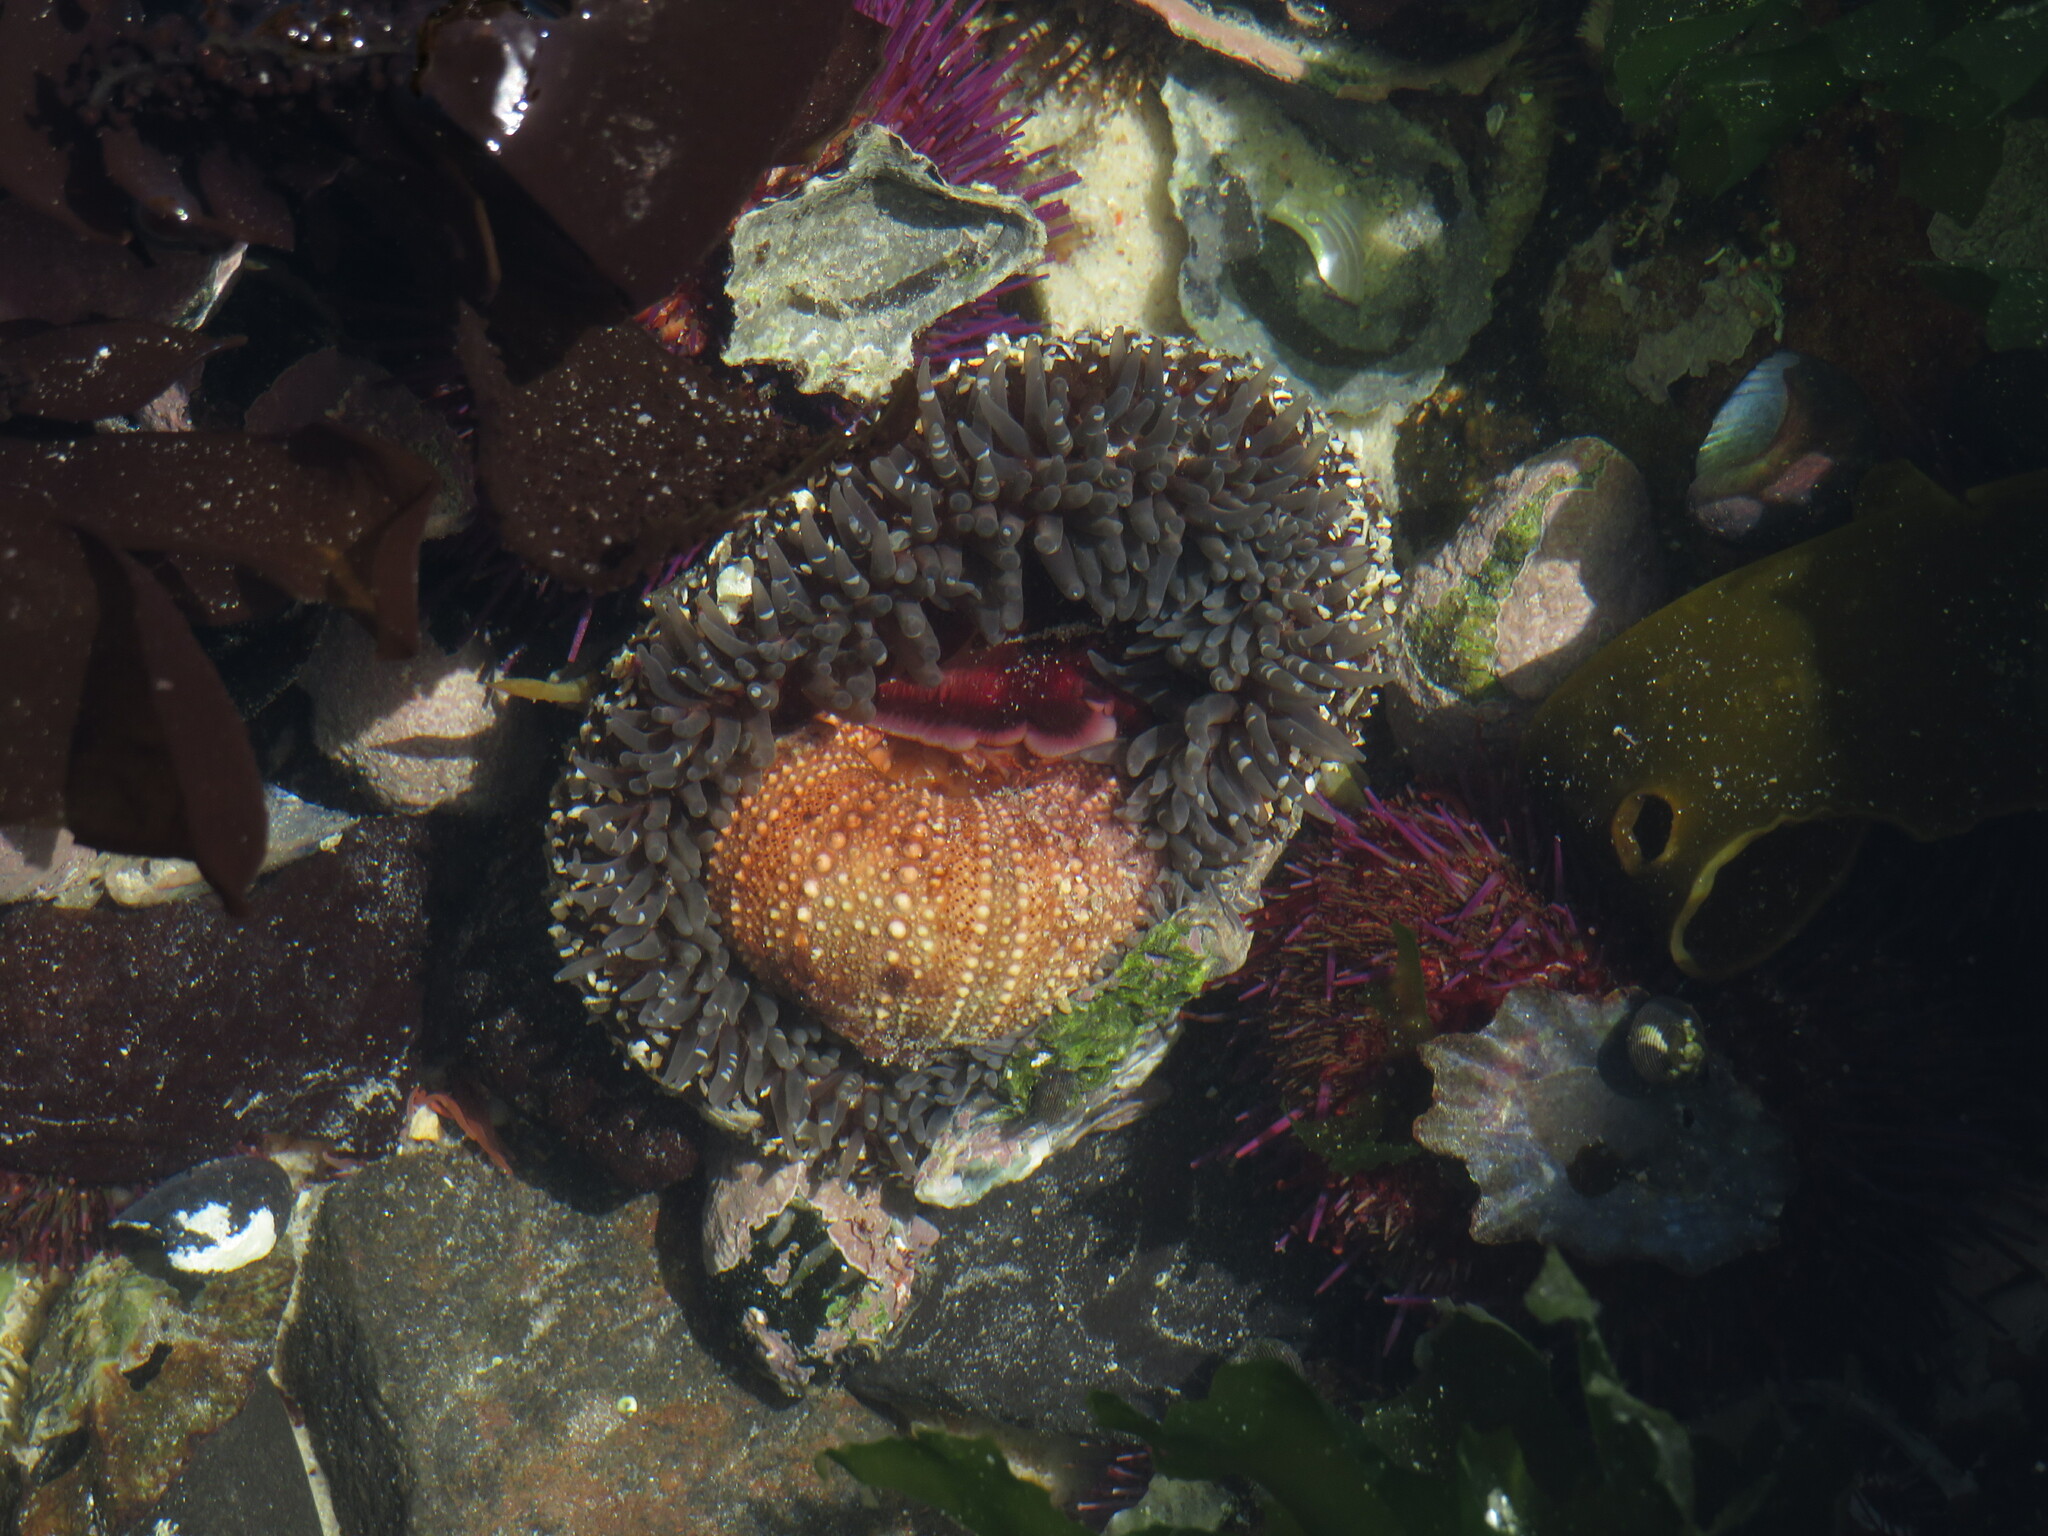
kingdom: Animalia
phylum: Cnidaria
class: Anthozoa
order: Actiniaria
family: Actiniidae
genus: Bunodactis
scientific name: Bunodactis reynaudi
